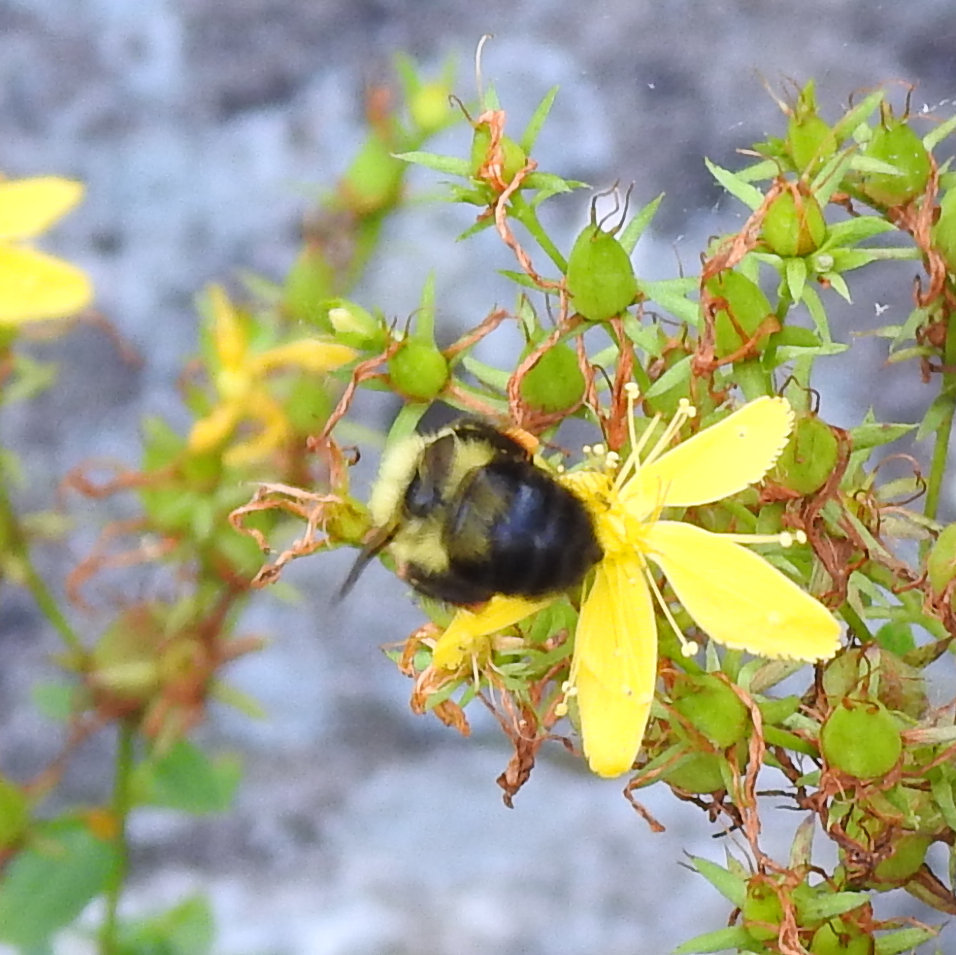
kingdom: Animalia
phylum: Arthropoda
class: Insecta
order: Hymenoptera
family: Apidae
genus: Bombus
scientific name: Bombus bimaculatus
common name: Two-spotted bumble bee
